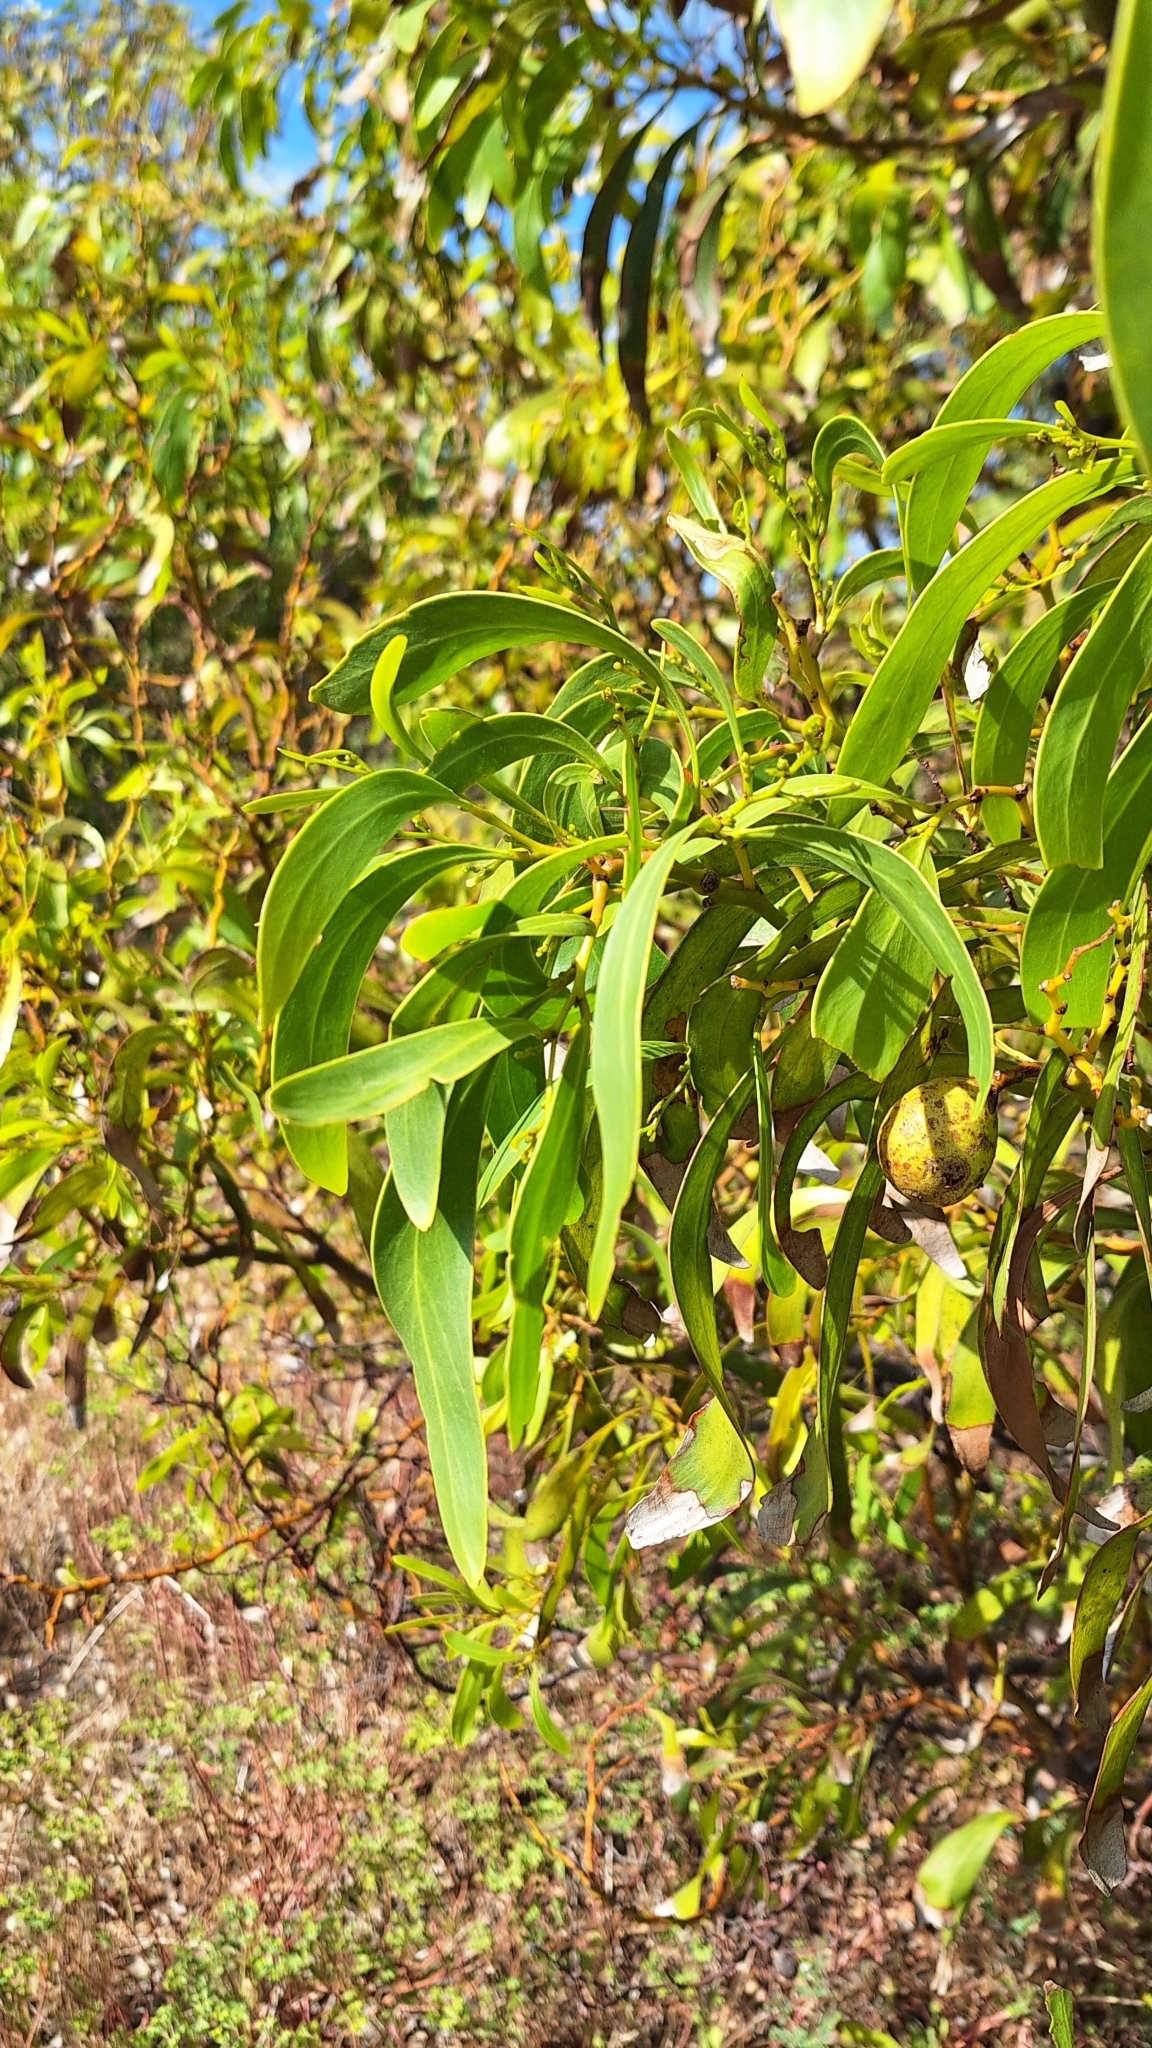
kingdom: Plantae
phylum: Tracheophyta
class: Magnoliopsida
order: Fabales
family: Fabaceae
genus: Acacia
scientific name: Acacia pycnantha
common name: Golden wattle
